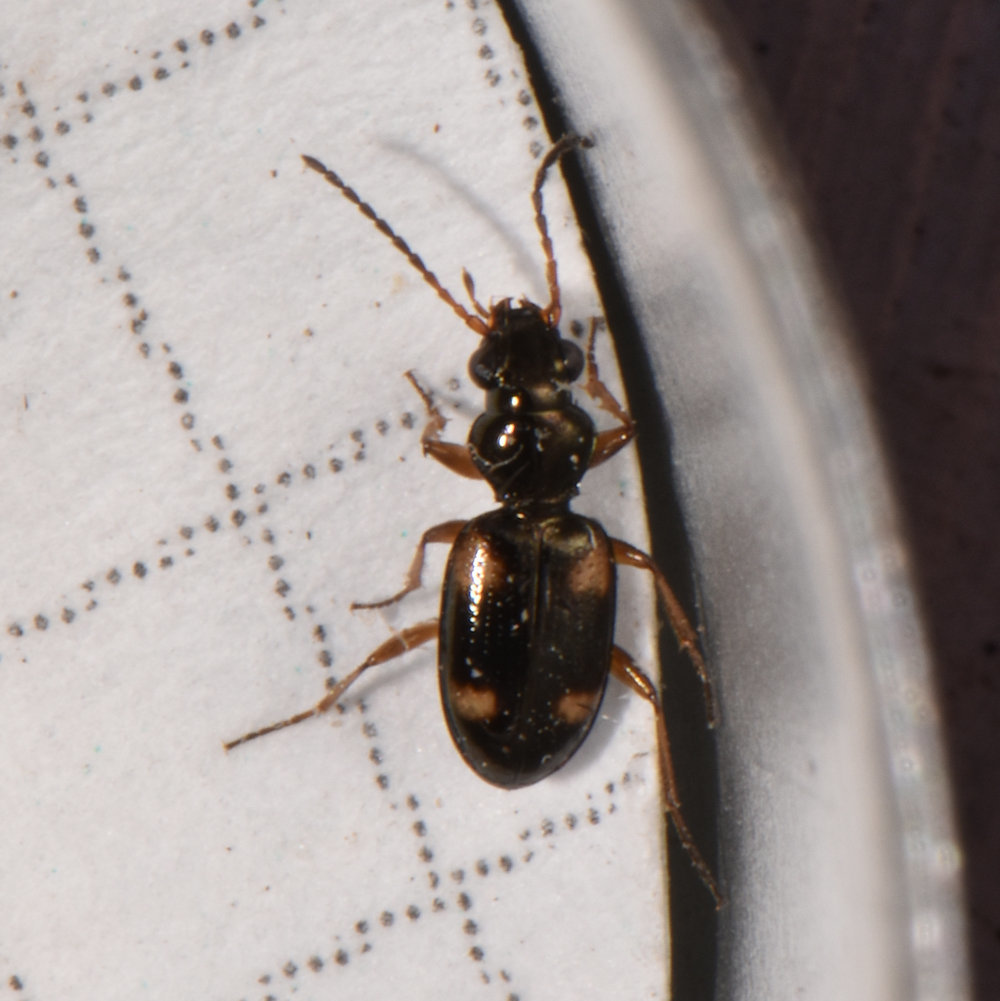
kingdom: Animalia
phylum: Arthropoda
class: Insecta
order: Coleoptera
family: Carabidae
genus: Bembidion
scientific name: Bembidion quadrimaculatum
